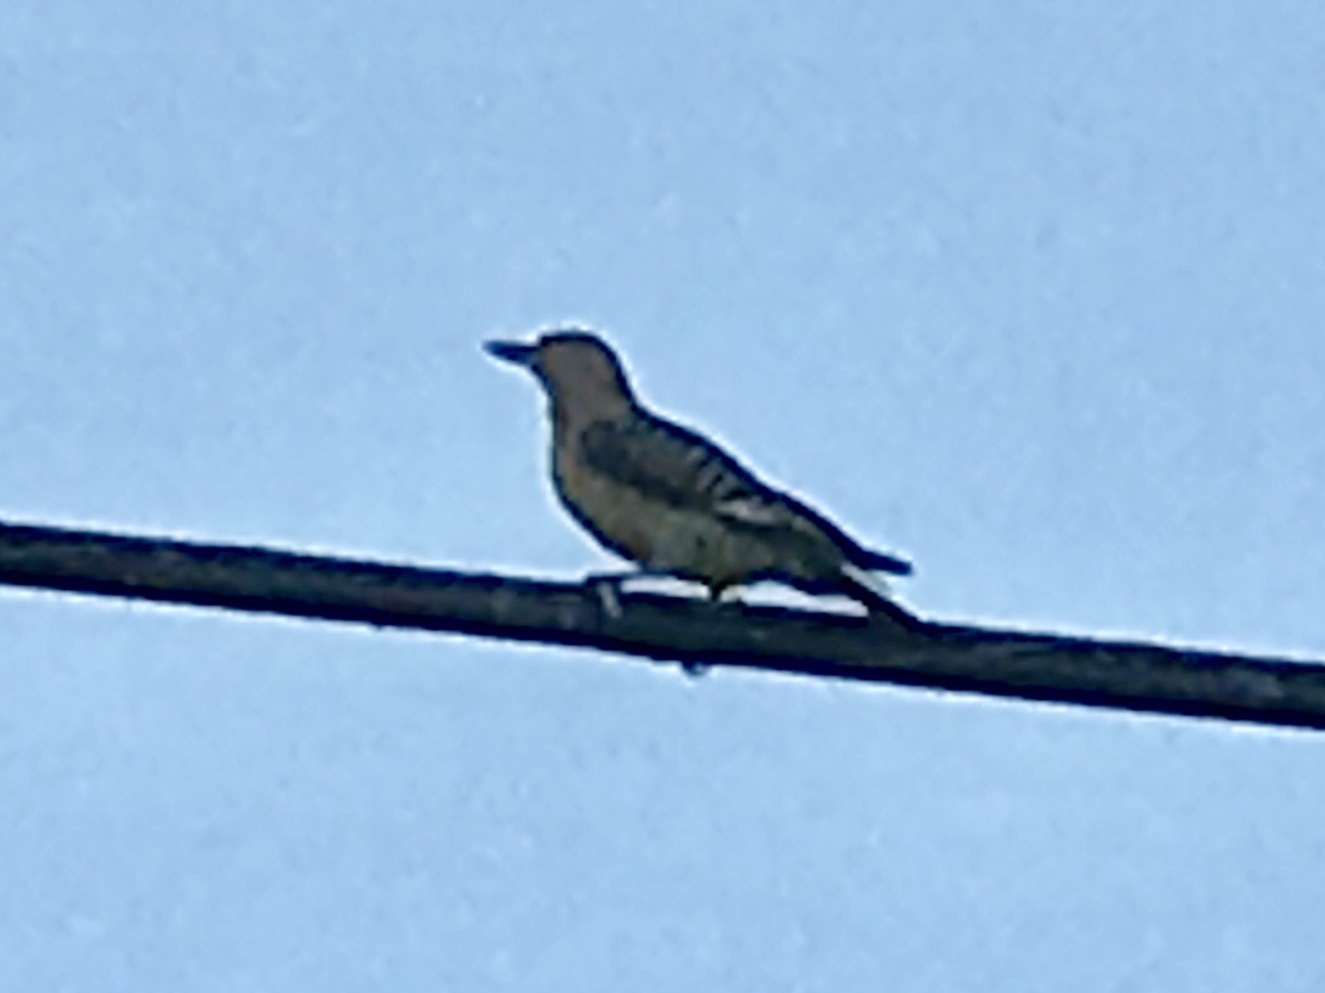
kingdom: Animalia
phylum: Chordata
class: Aves
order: Piciformes
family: Picidae
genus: Melanerpes
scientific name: Melanerpes uropygialis
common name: Gila woodpecker
